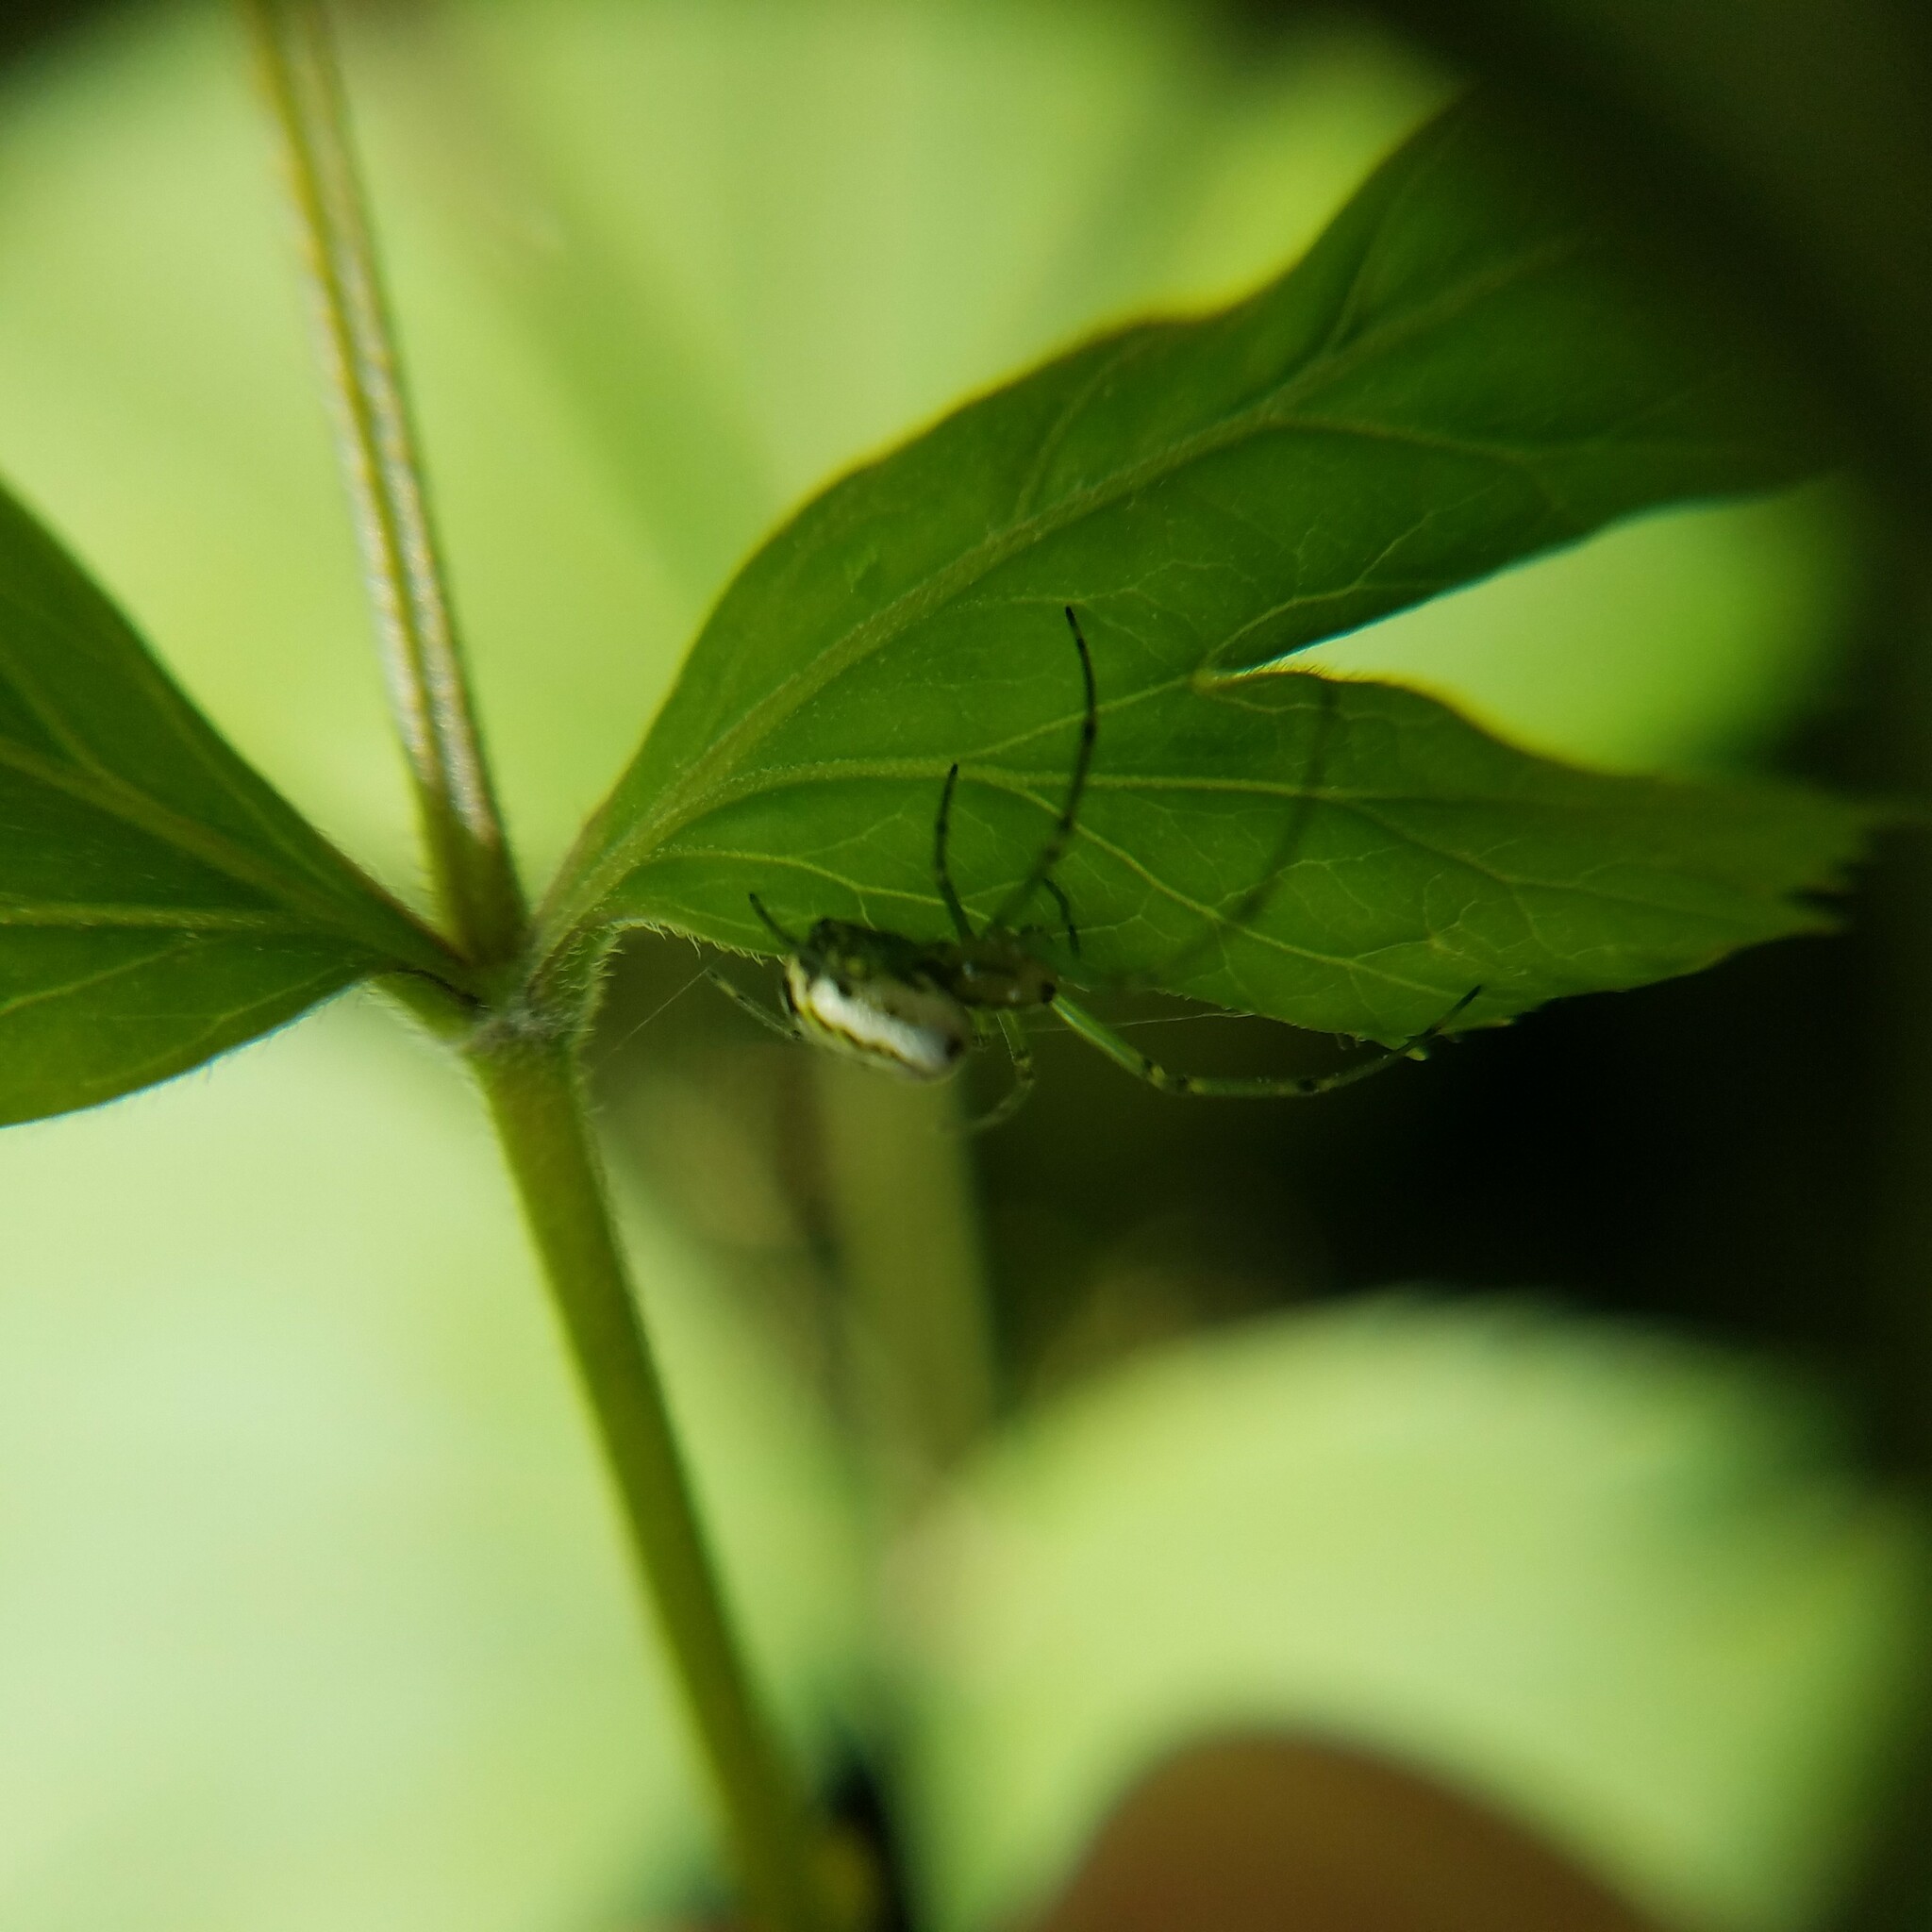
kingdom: Animalia
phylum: Arthropoda
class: Arachnida
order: Araneae
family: Tetragnathidae
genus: Leucauge
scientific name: Leucauge venusta
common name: Longjawed orb weavers
